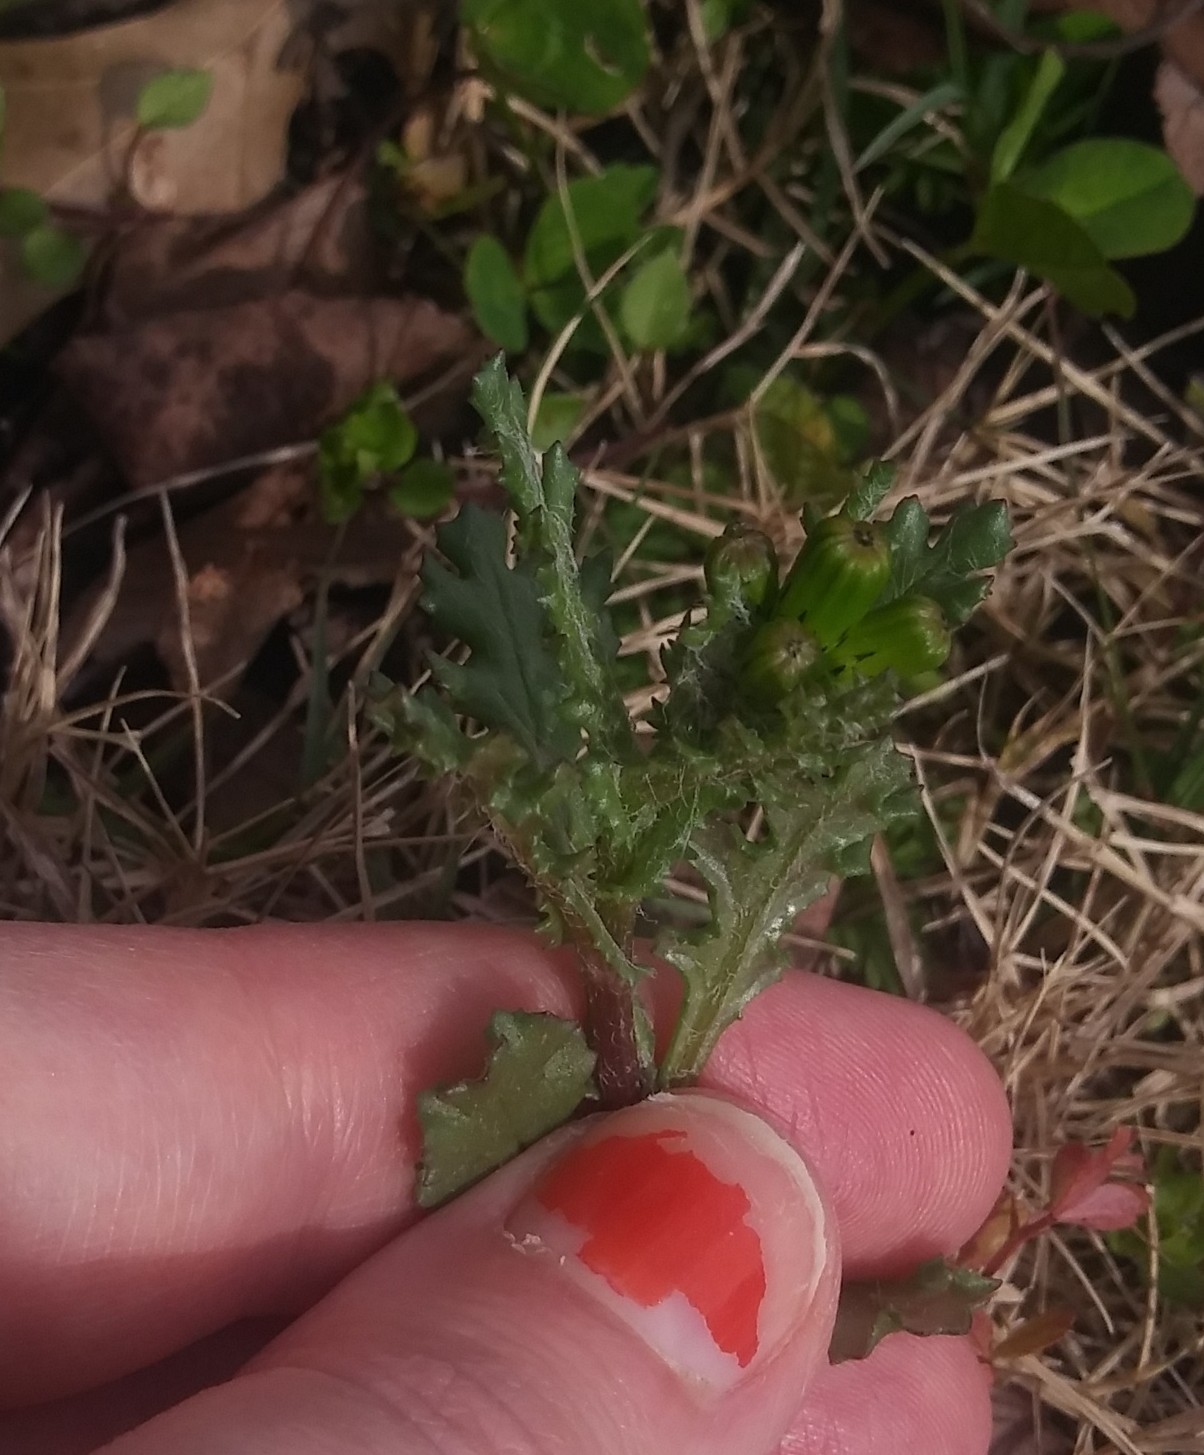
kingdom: Plantae
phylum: Tracheophyta
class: Magnoliopsida
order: Asterales
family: Asteraceae
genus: Senecio
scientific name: Senecio vulgaris
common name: Old-man-in-the-spring
